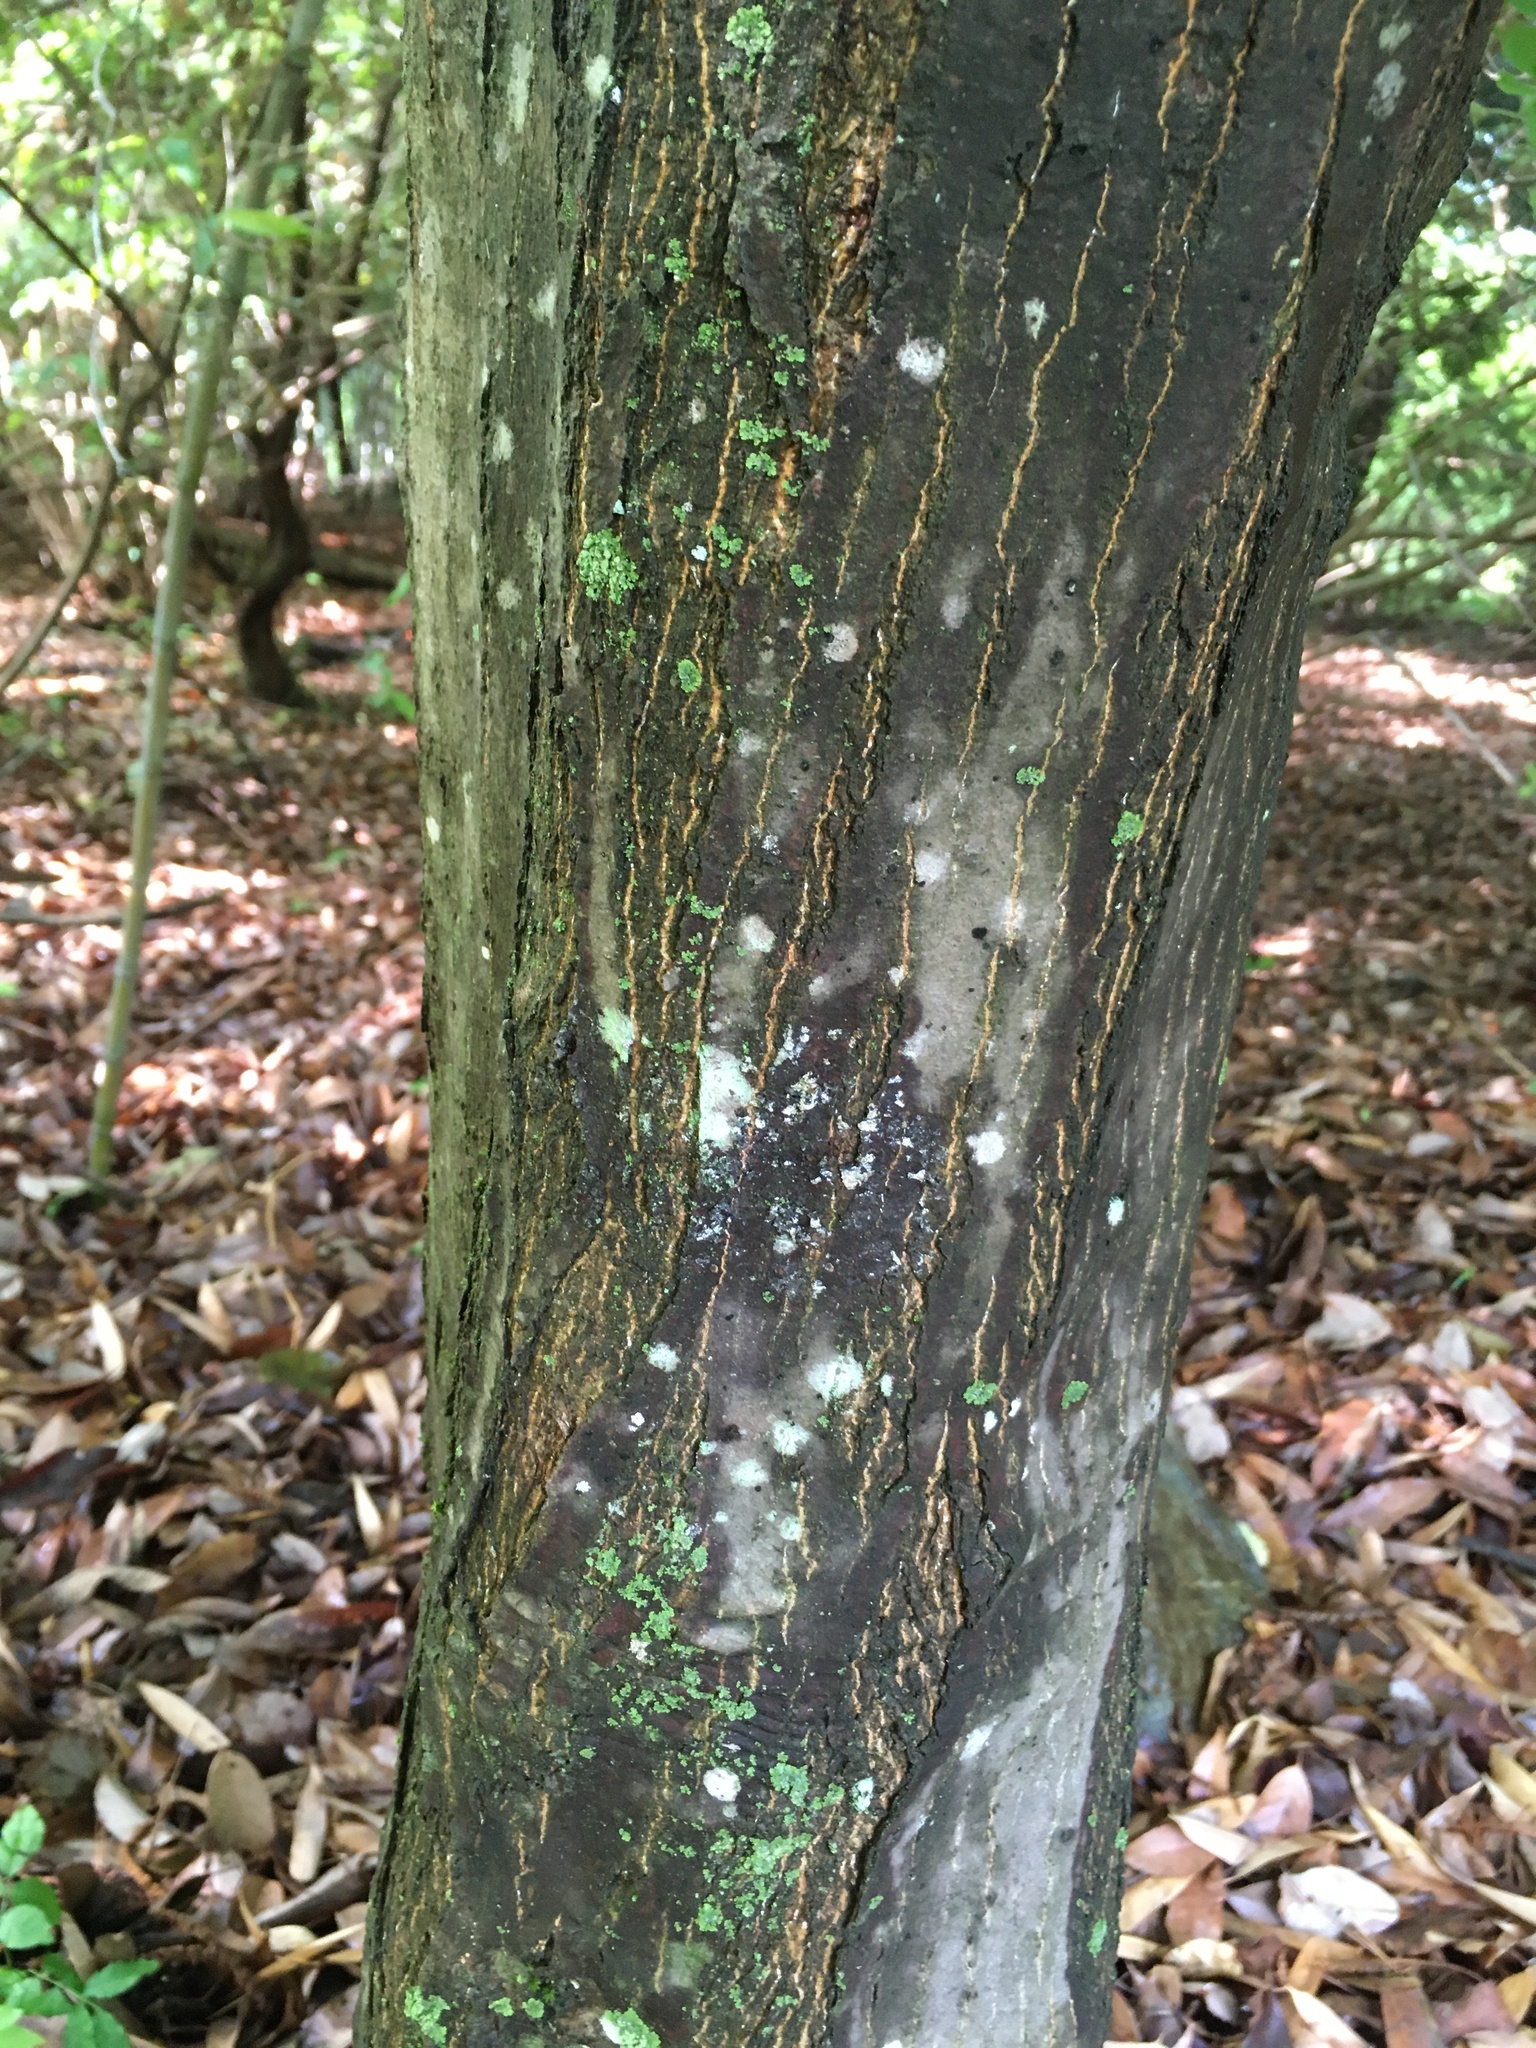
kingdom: Plantae
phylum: Tracheophyta
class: Magnoliopsida
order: Sapindales
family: Sapindaceae
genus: Acer
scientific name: Acer palmatum
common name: Japanese maple
